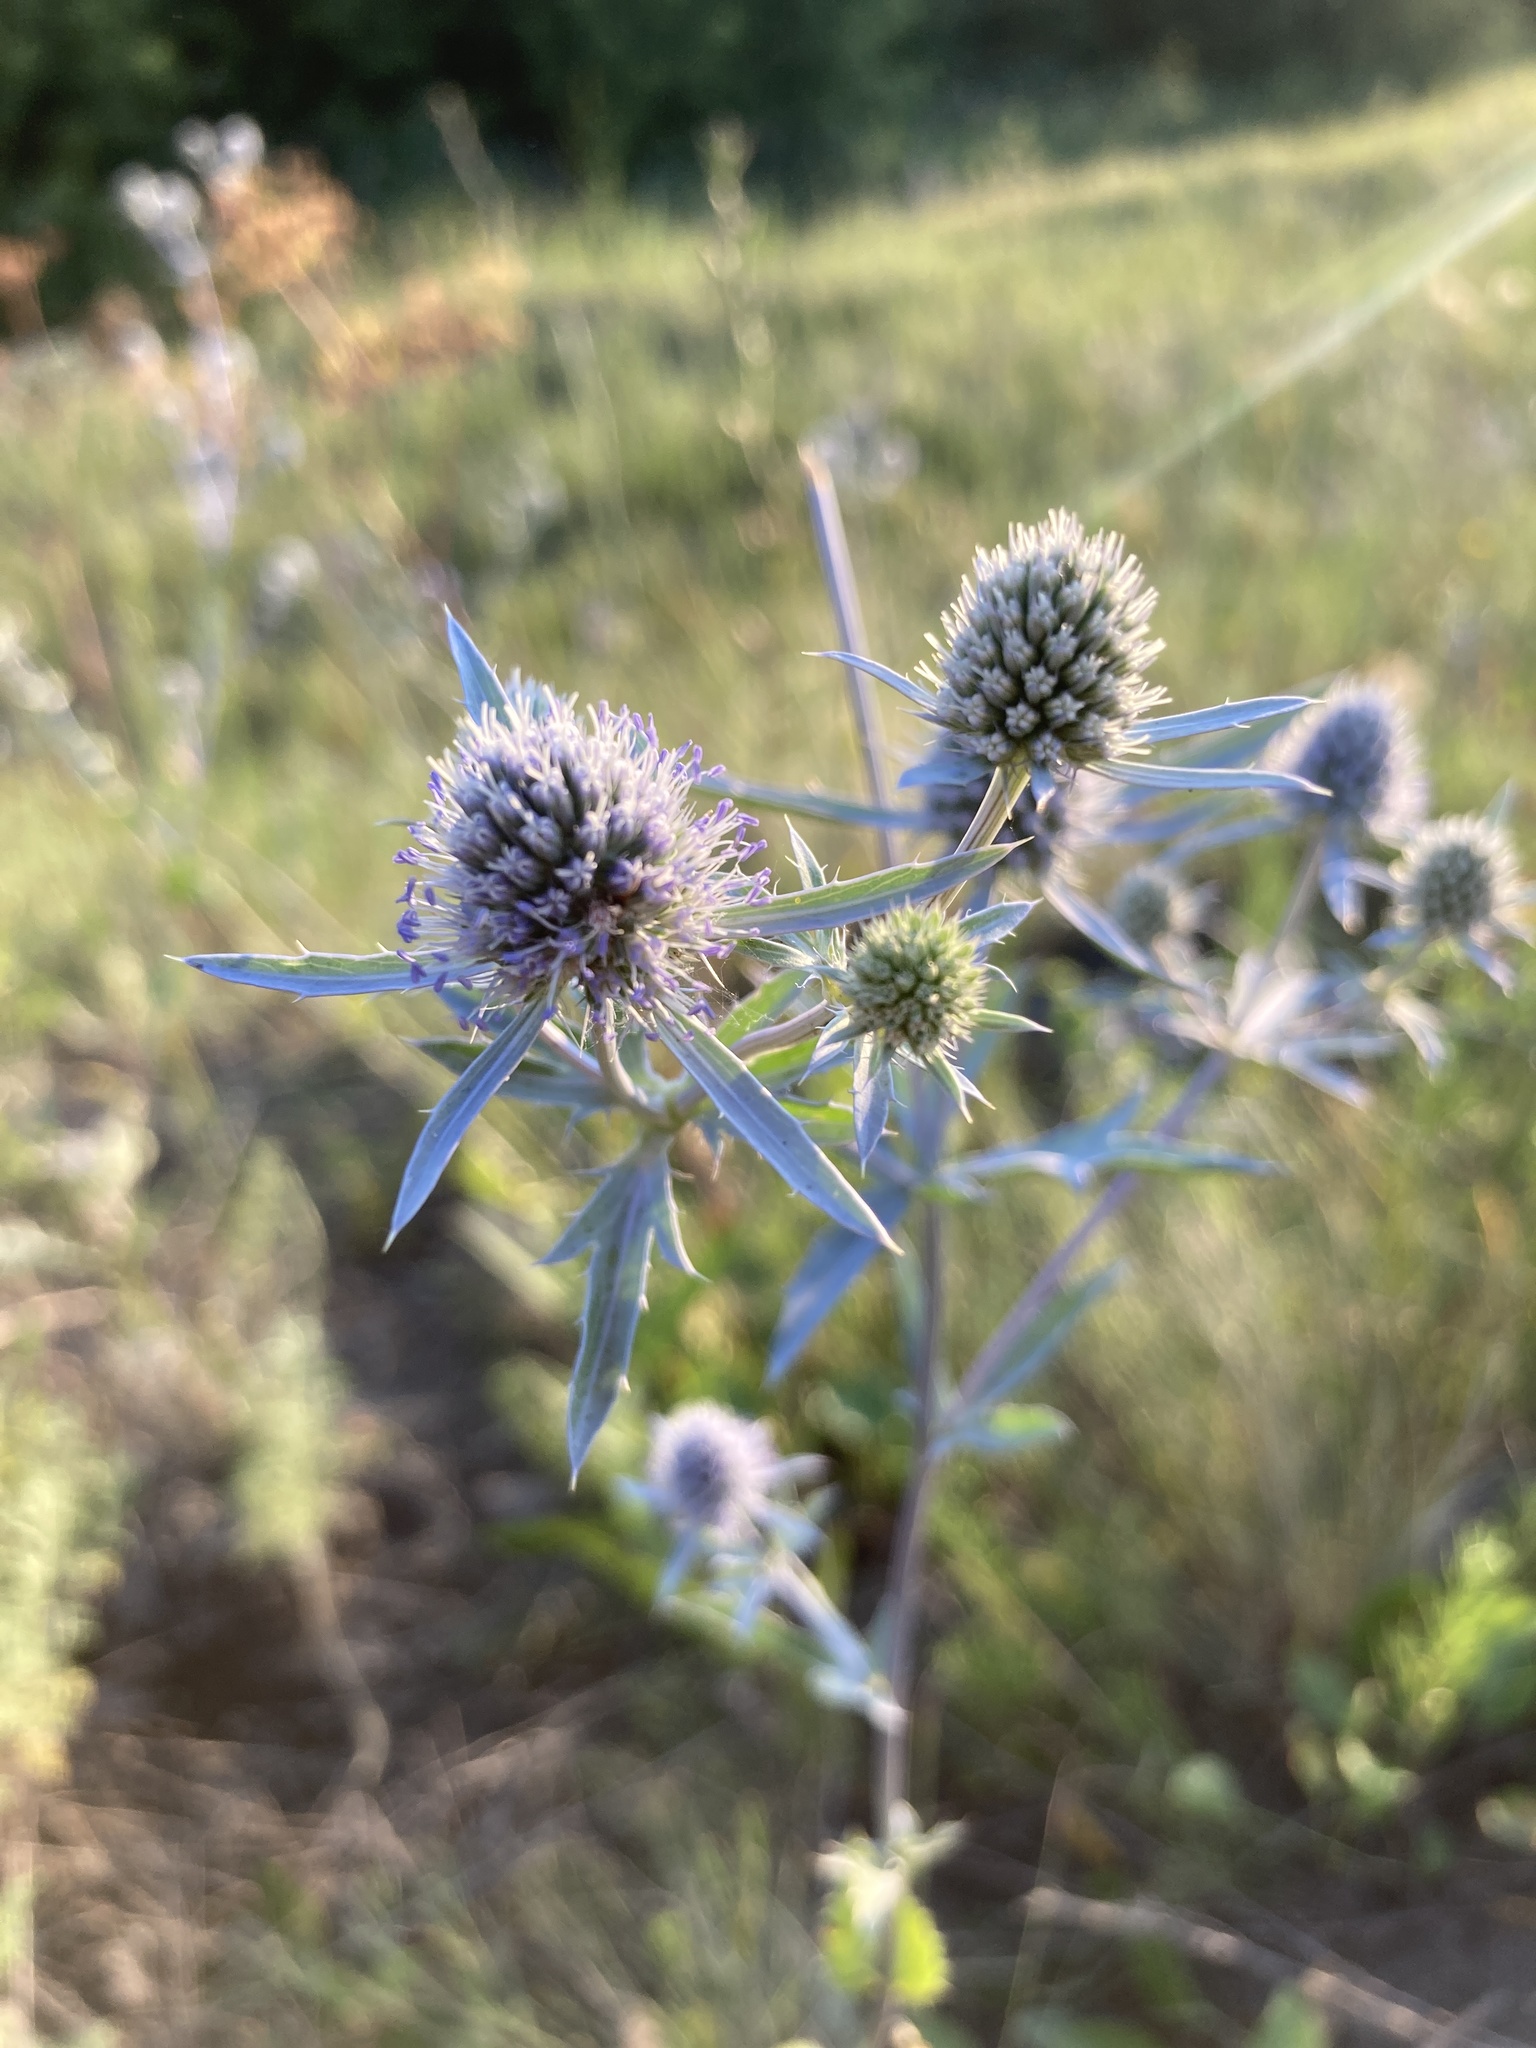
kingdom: Plantae
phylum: Tracheophyta
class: Magnoliopsida
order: Apiales
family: Apiaceae
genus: Eryngium
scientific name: Eryngium planum
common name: Blue eryngo
